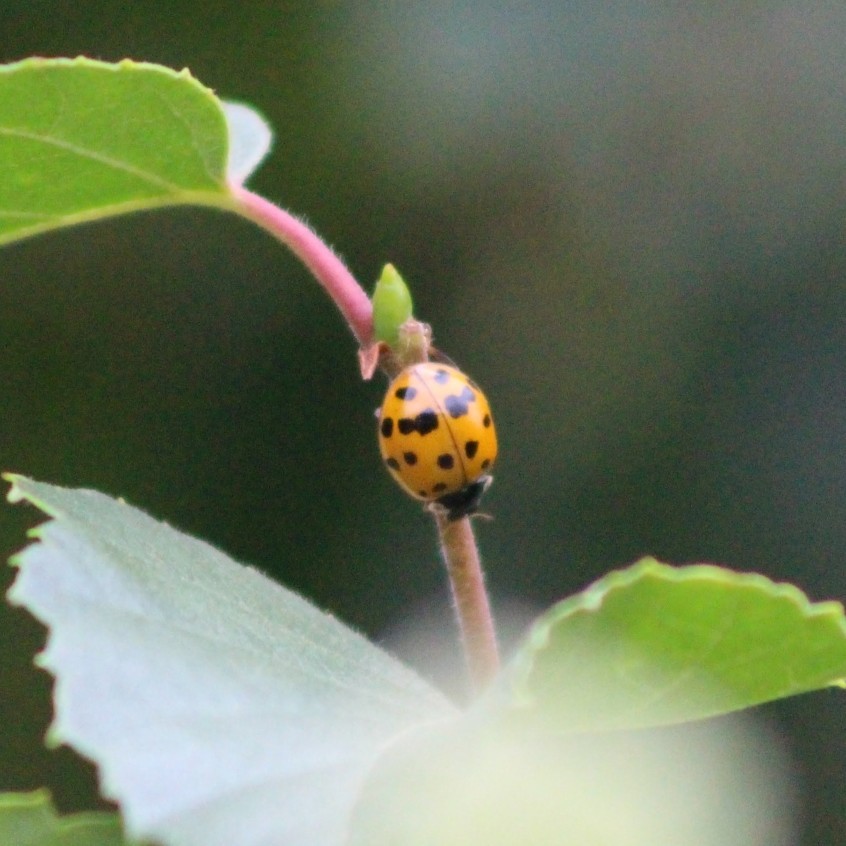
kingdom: Animalia
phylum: Arthropoda
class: Insecta
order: Coleoptera
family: Coccinellidae
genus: Harmonia
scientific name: Harmonia axyridis
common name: Harlequin ladybird
